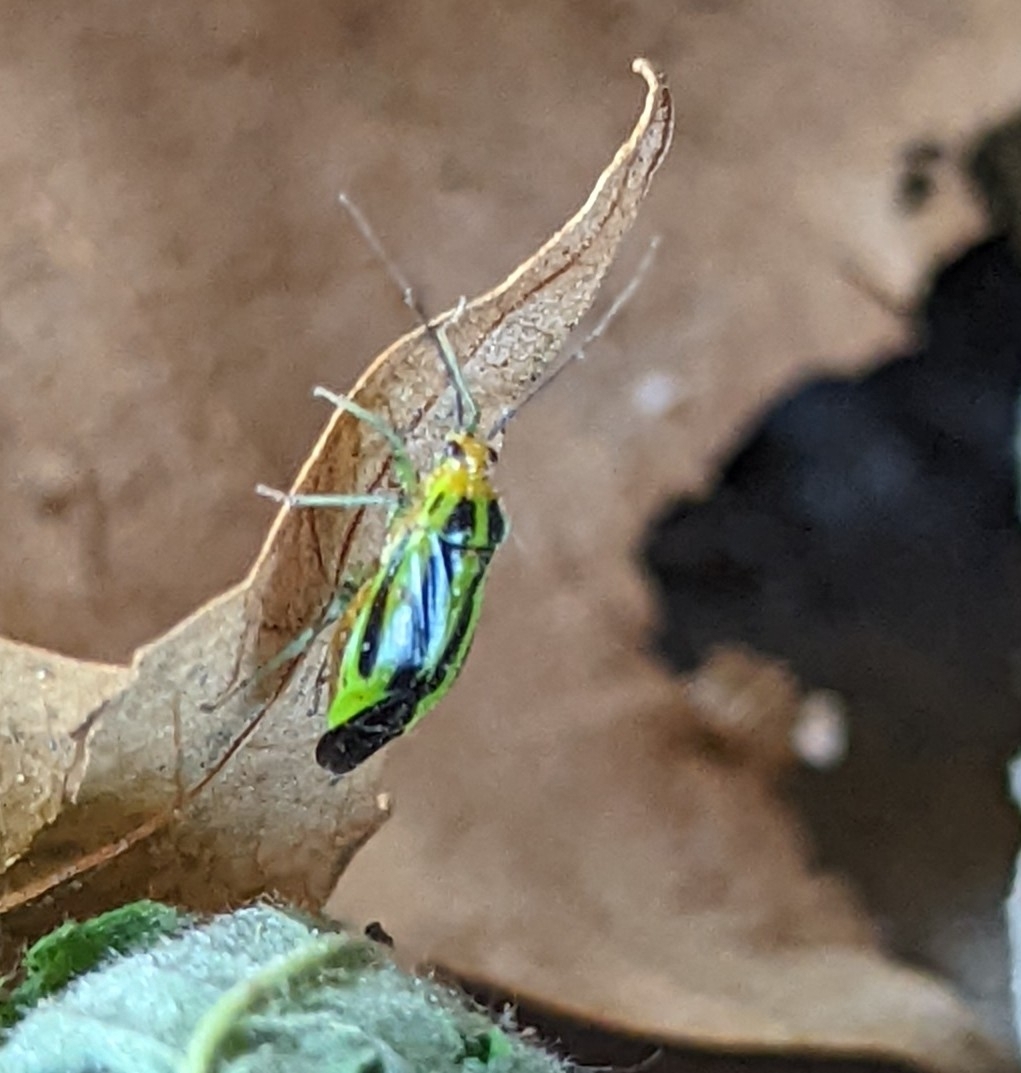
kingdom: Animalia
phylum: Arthropoda
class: Insecta
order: Hemiptera
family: Miridae
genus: Poecilocapsus
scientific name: Poecilocapsus lineatus
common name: Four-lined plant bug
